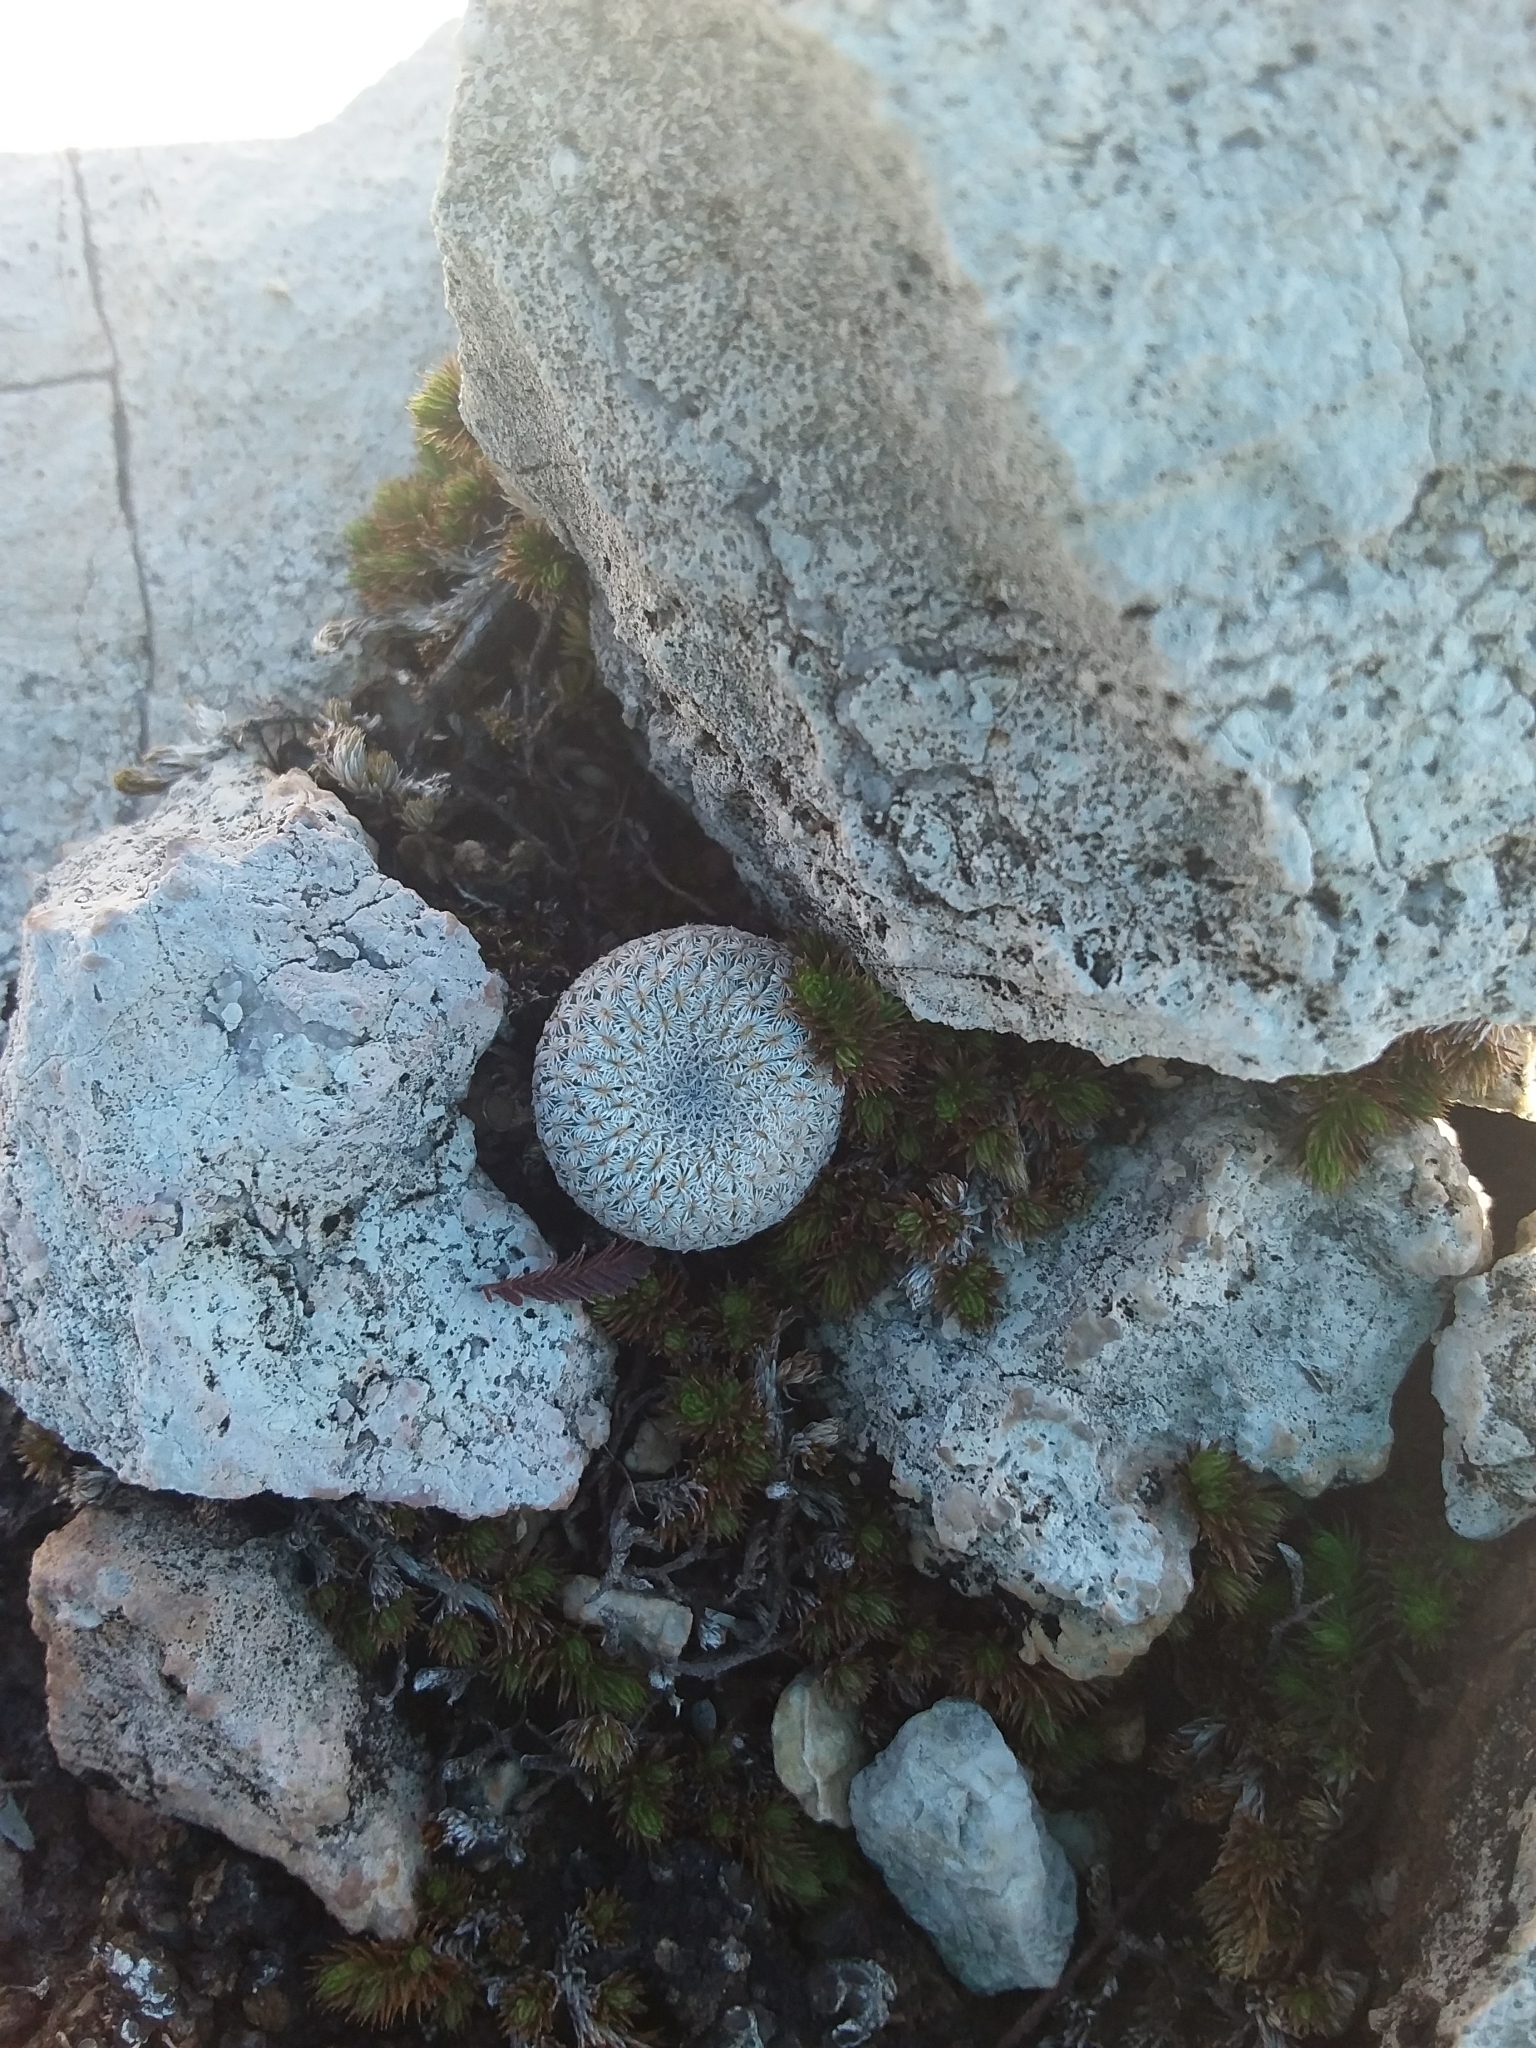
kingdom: Plantae
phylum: Tracheophyta
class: Magnoliopsida
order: Caryophyllales
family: Cactaceae
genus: Epithelantha
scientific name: Epithelantha micromeris
